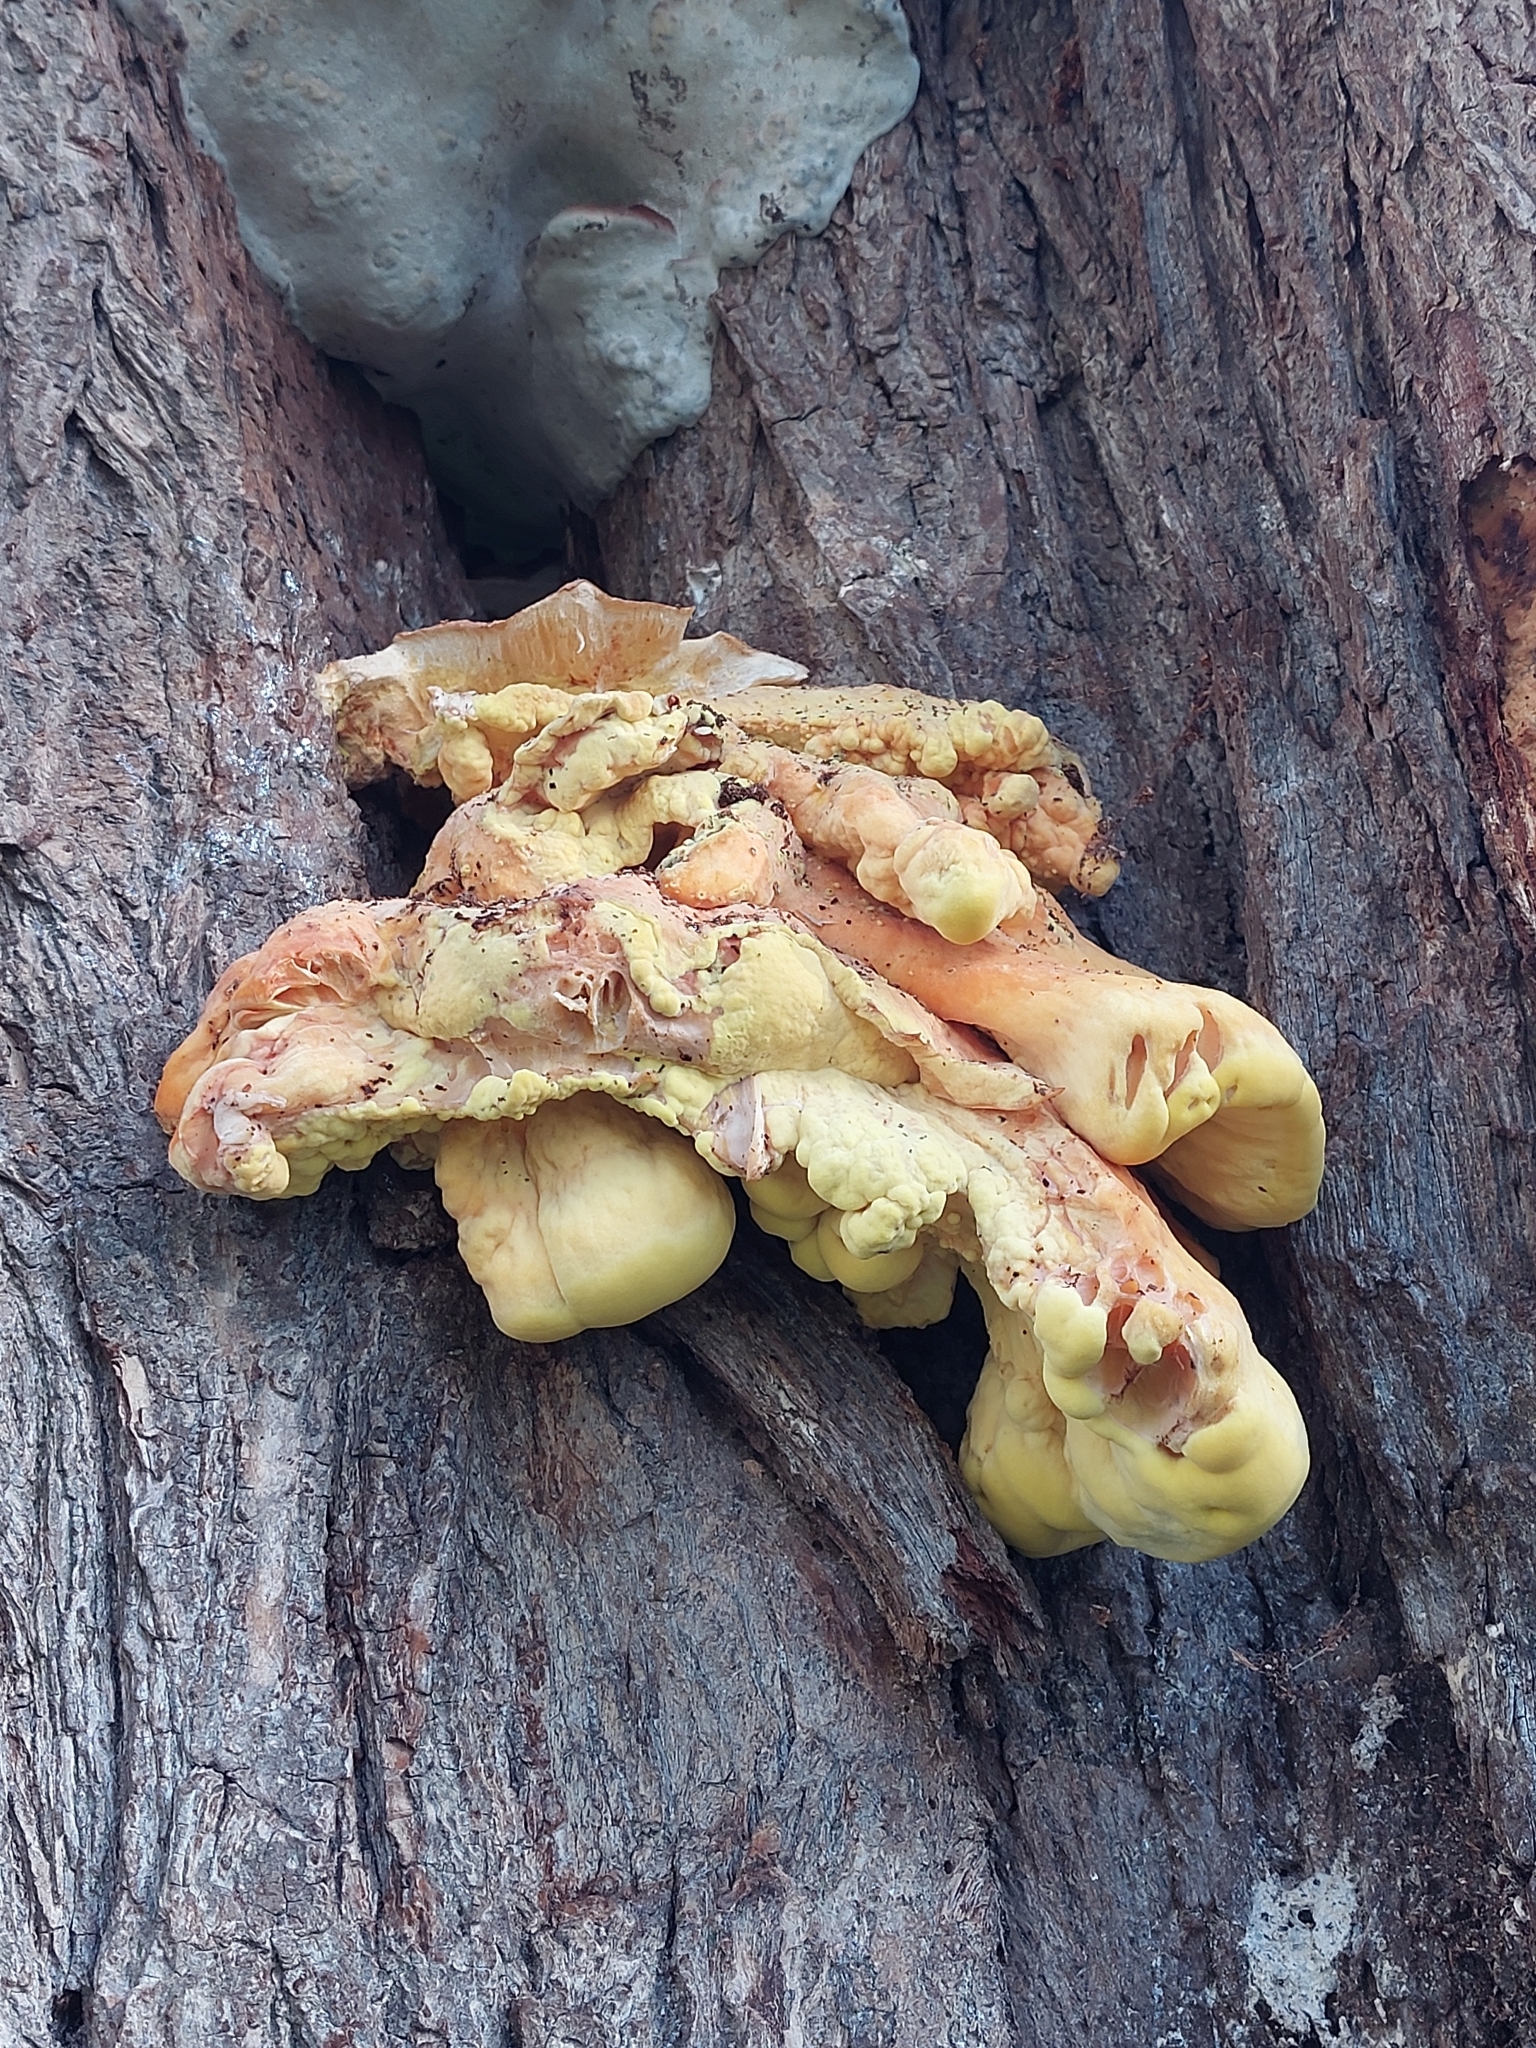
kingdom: Fungi
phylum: Basidiomycota
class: Agaricomycetes
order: Polyporales
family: Laetiporaceae
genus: Laetiporus
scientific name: Laetiporus sulphureus
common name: Chicken of the woods
